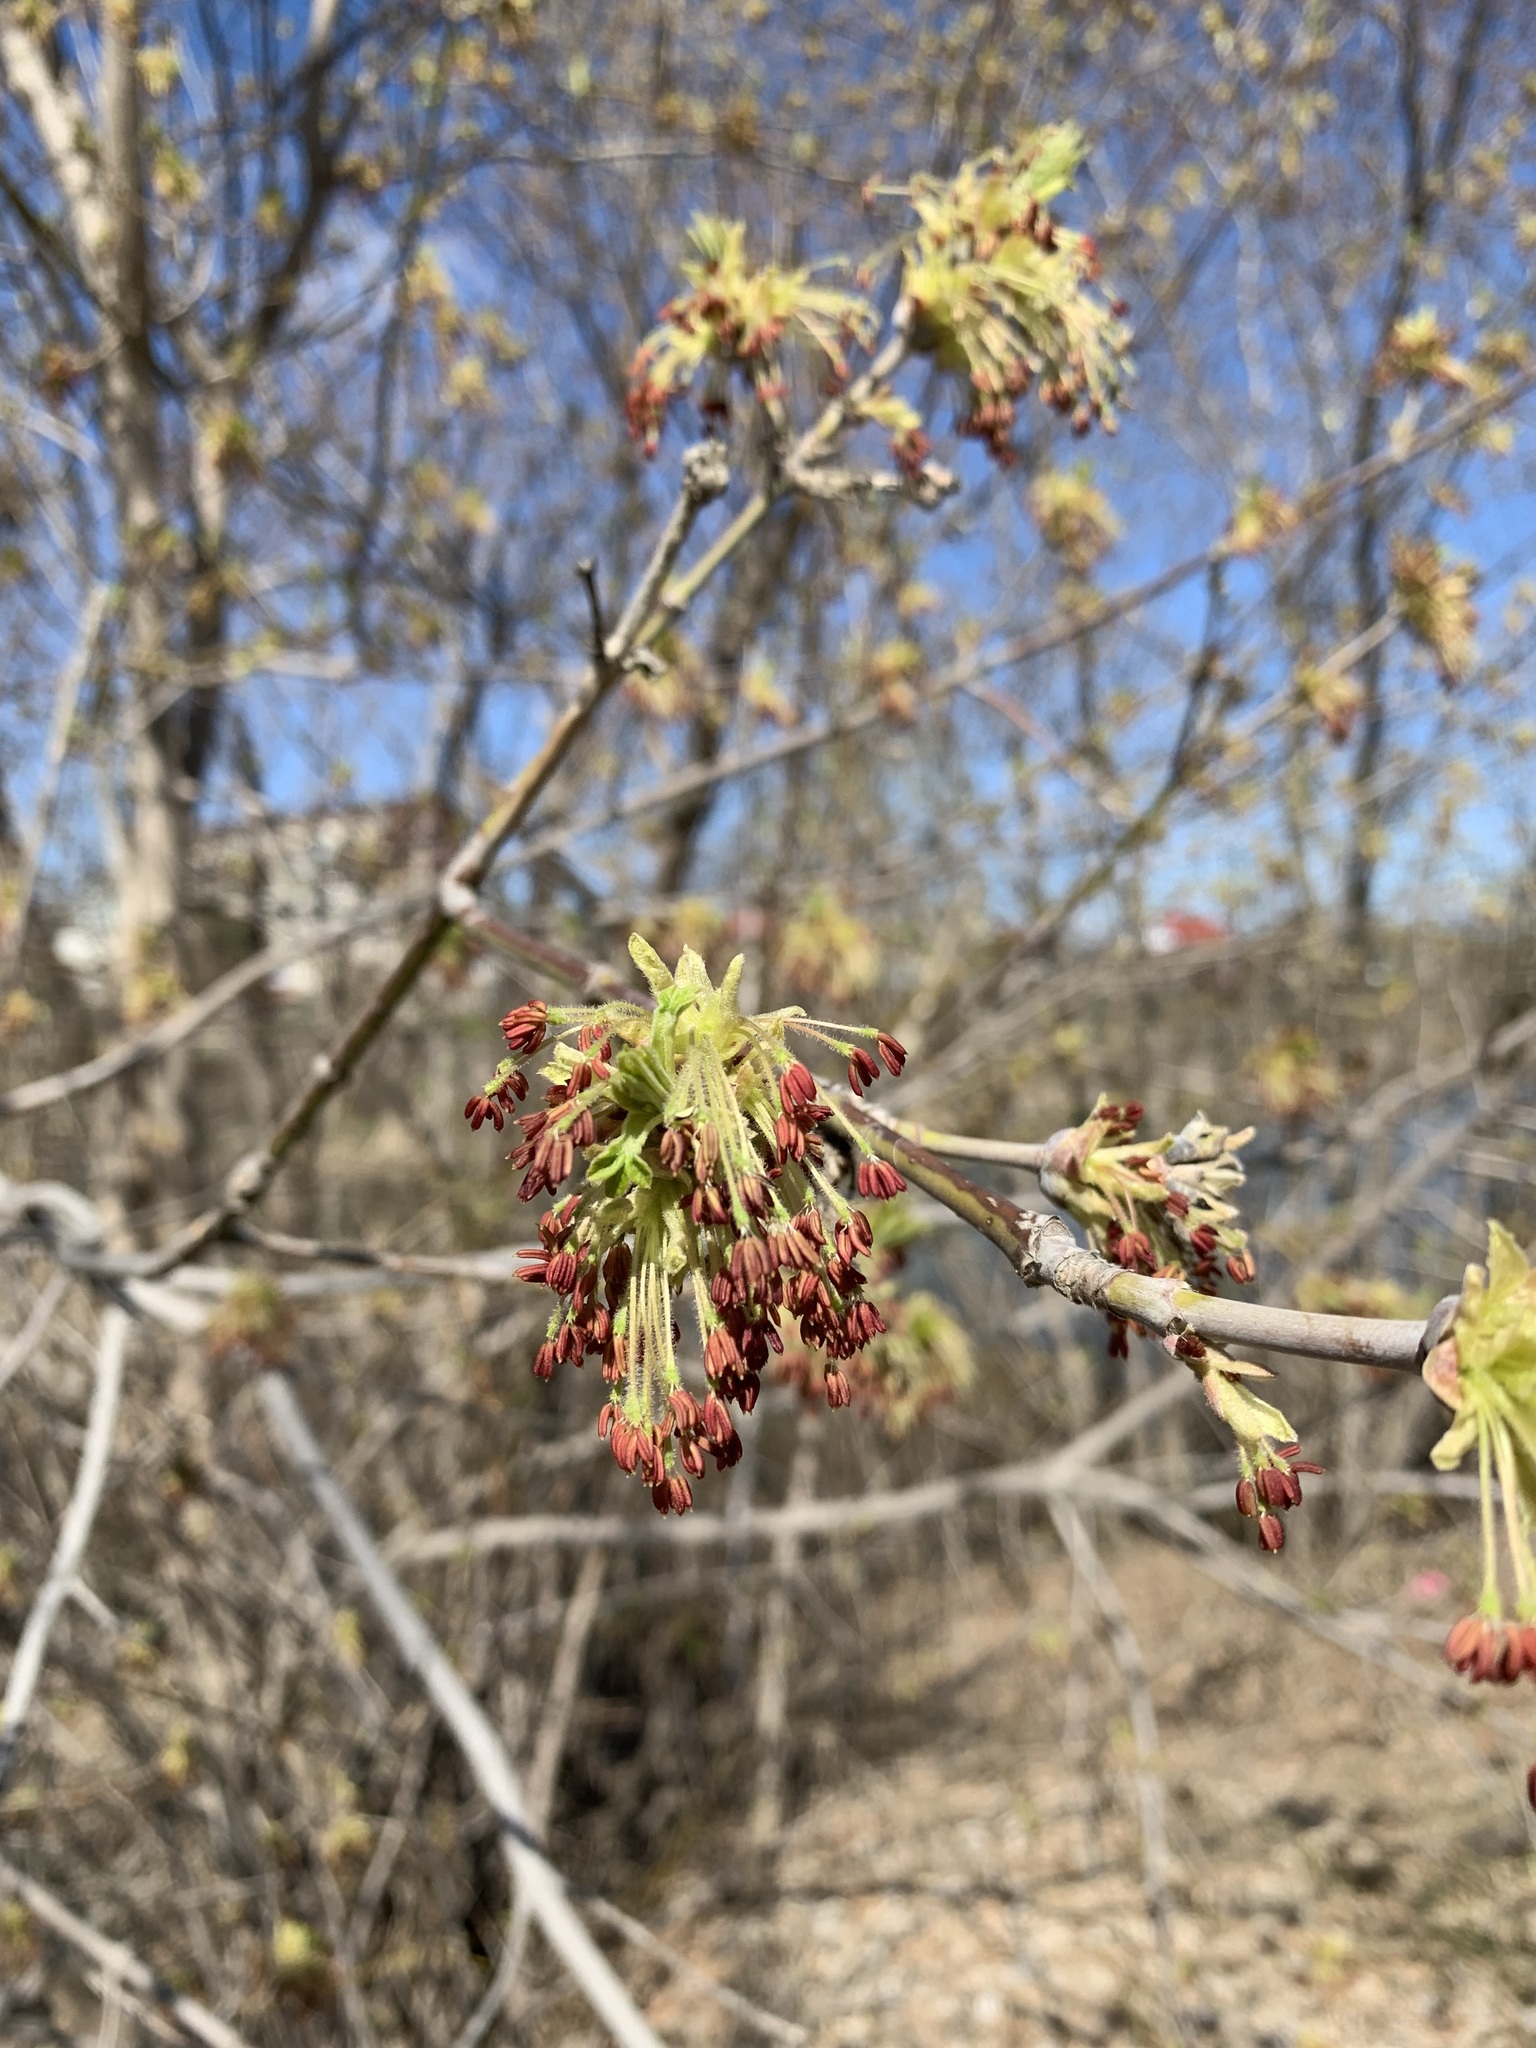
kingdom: Plantae
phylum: Tracheophyta
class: Magnoliopsida
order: Sapindales
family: Sapindaceae
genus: Acer
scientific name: Acer negundo
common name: Ashleaf maple
